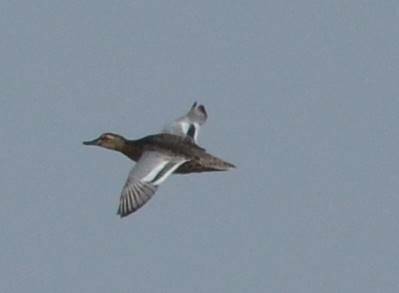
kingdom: Animalia
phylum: Chordata
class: Aves
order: Anseriformes
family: Anatidae
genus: Spatula
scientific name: Spatula querquedula
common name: Garganey
